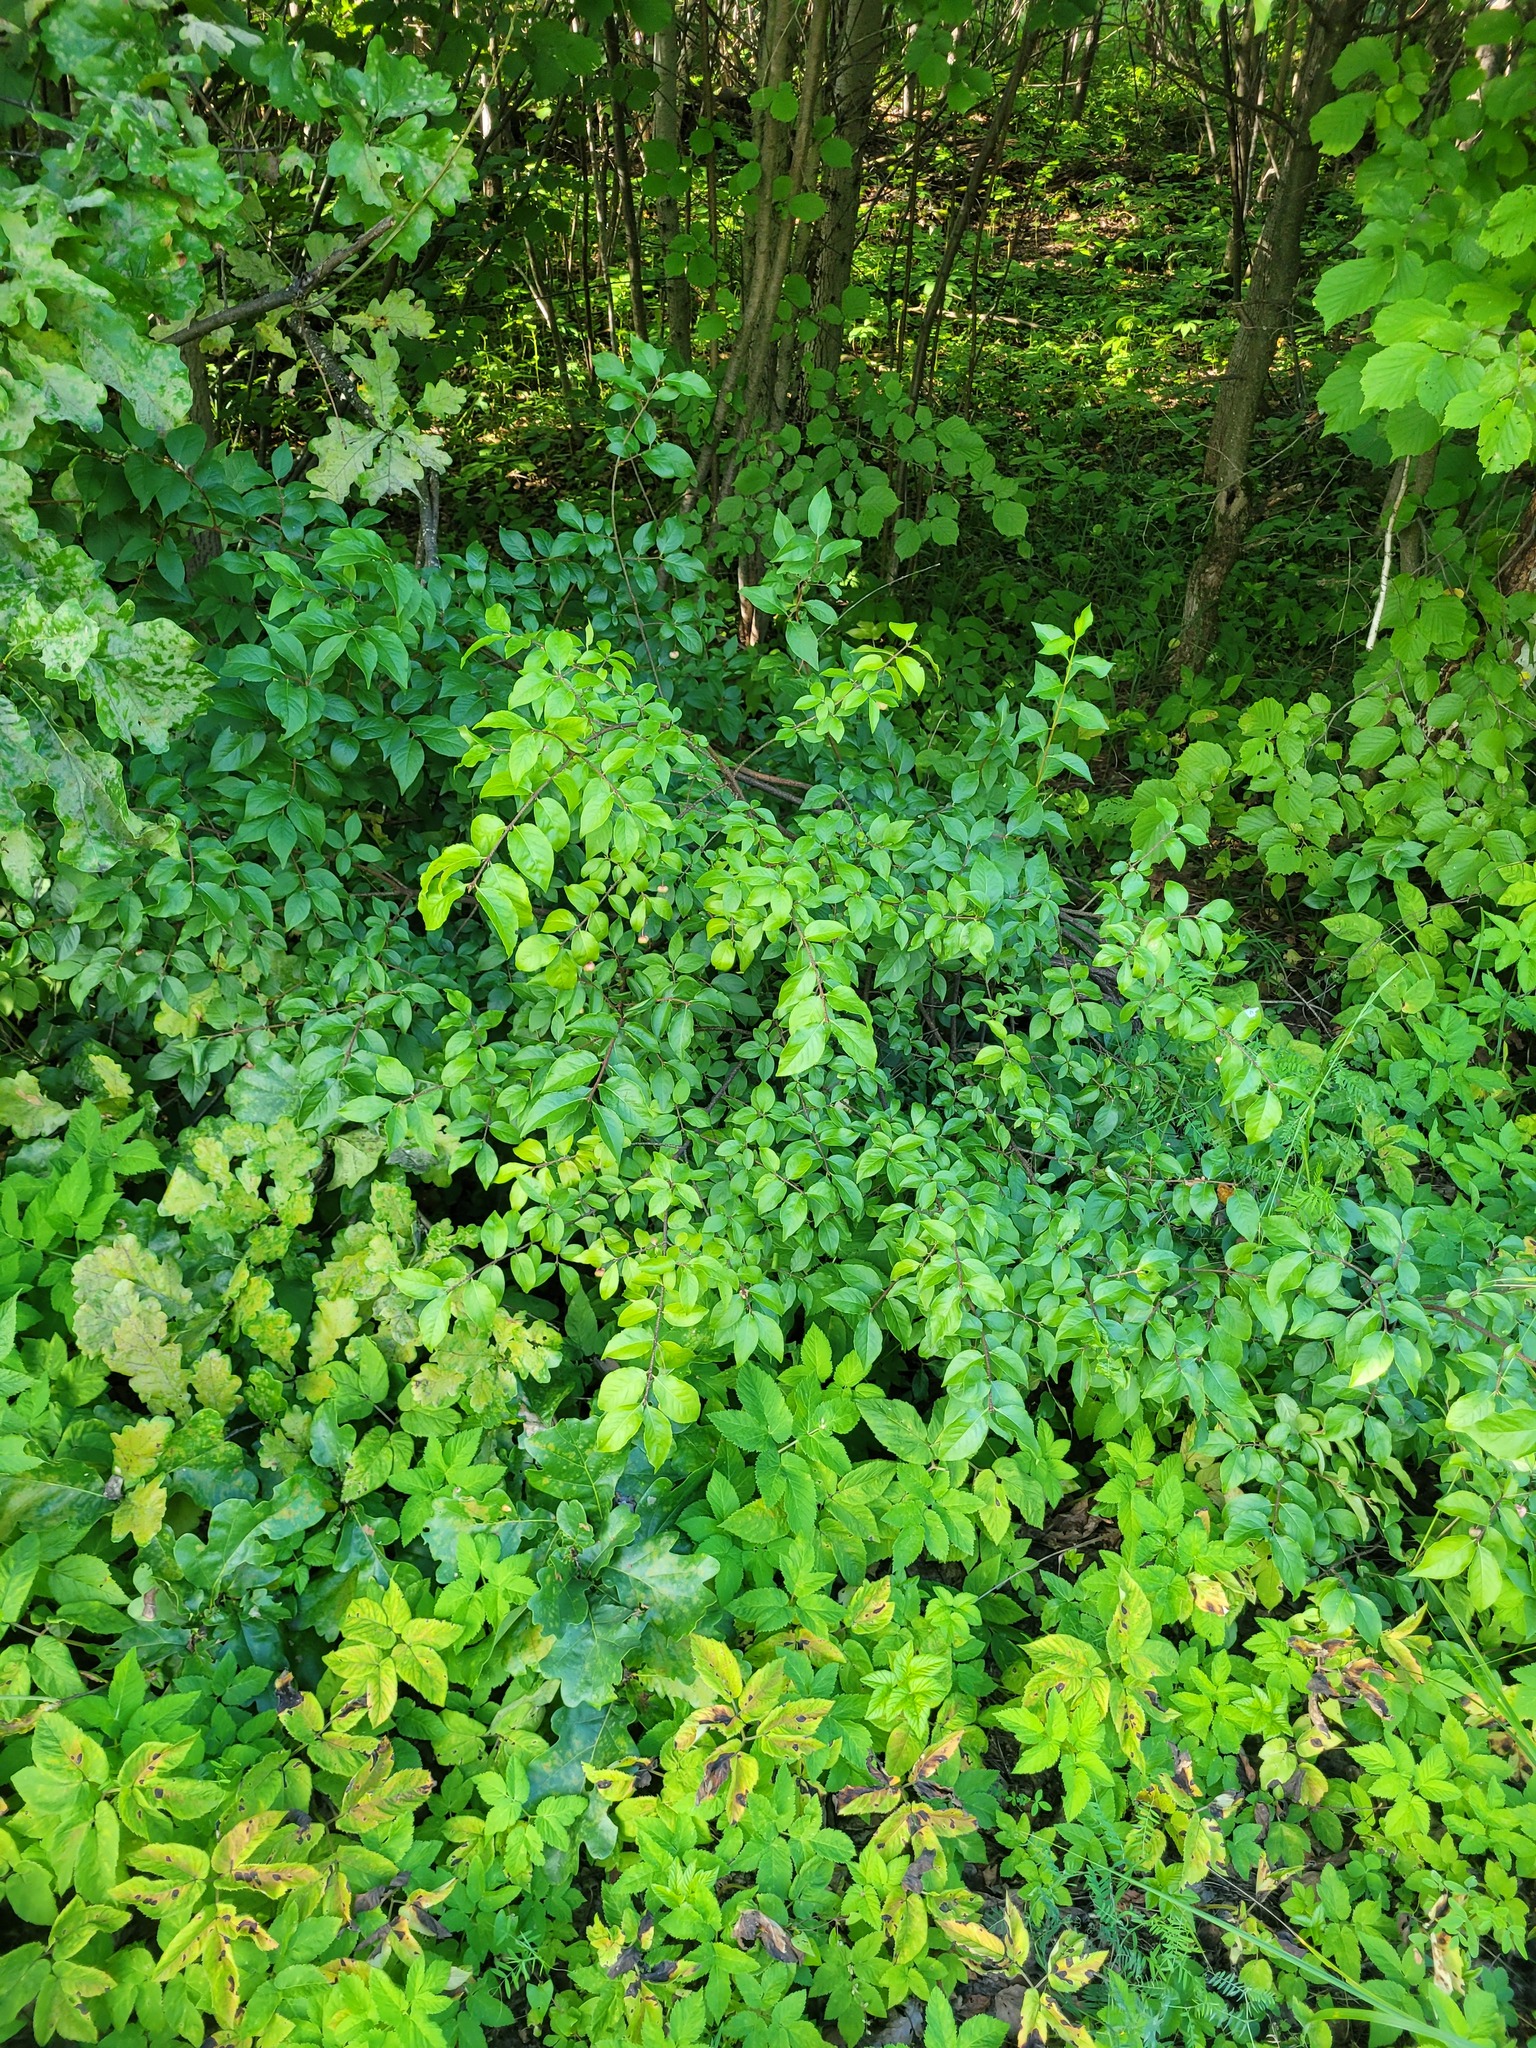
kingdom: Plantae
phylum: Tracheophyta
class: Magnoliopsida
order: Celastrales
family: Celastraceae
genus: Euonymus
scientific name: Euonymus verrucosus
